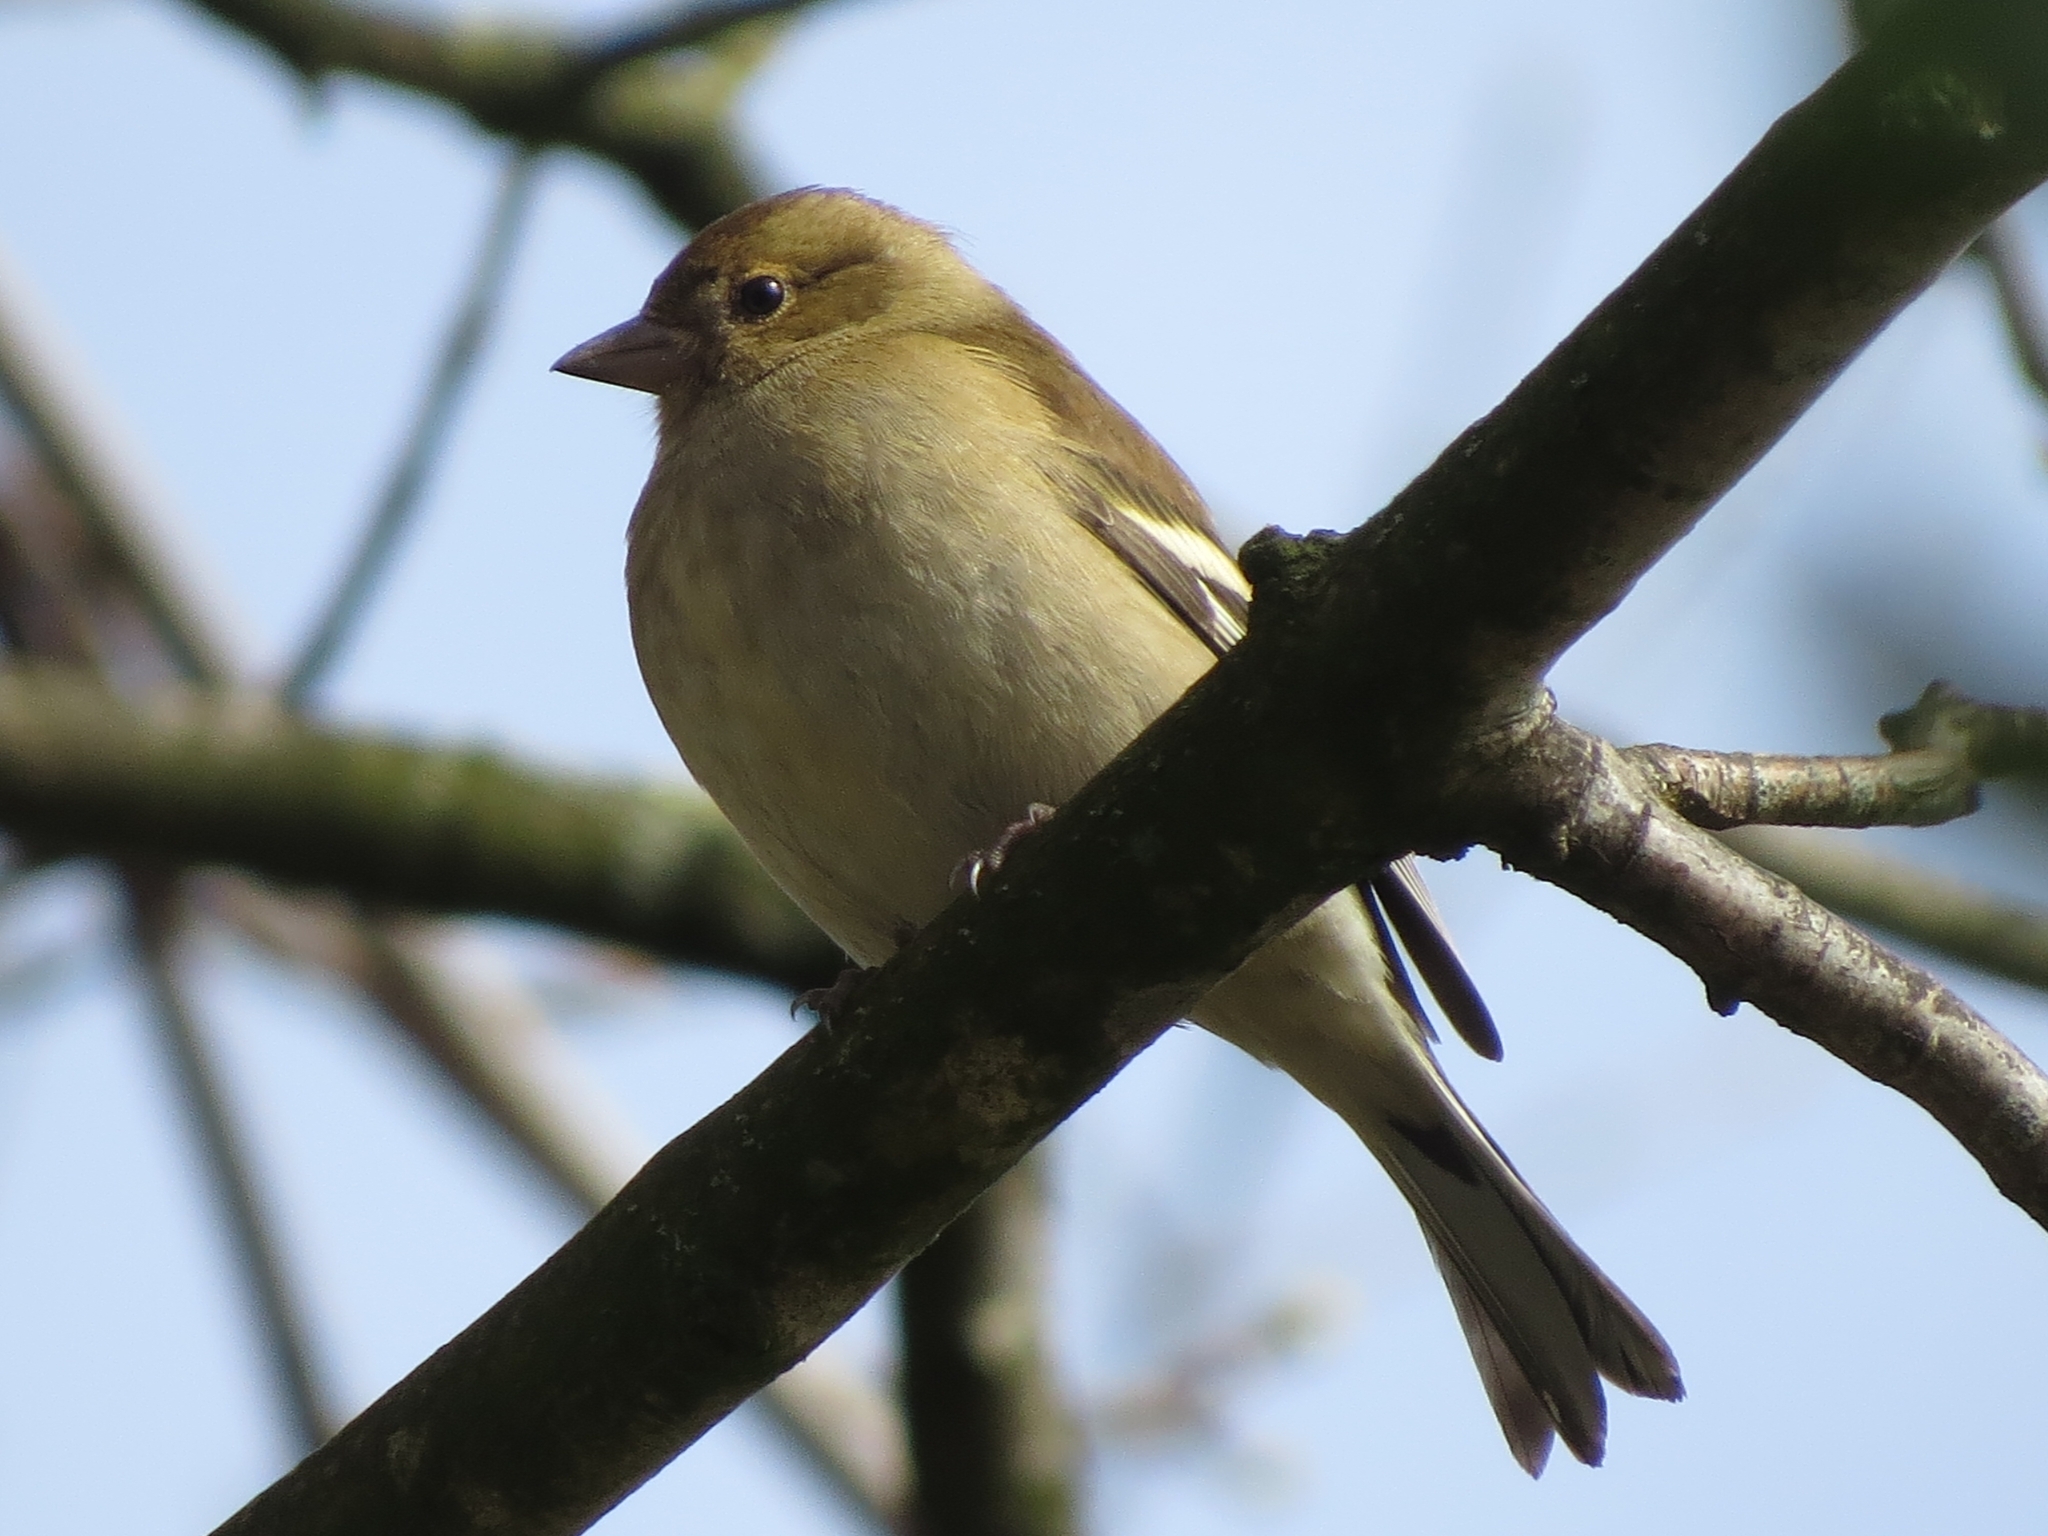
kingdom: Animalia
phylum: Chordata
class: Aves
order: Passeriformes
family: Fringillidae
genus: Fringilla
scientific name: Fringilla coelebs
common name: Common chaffinch
